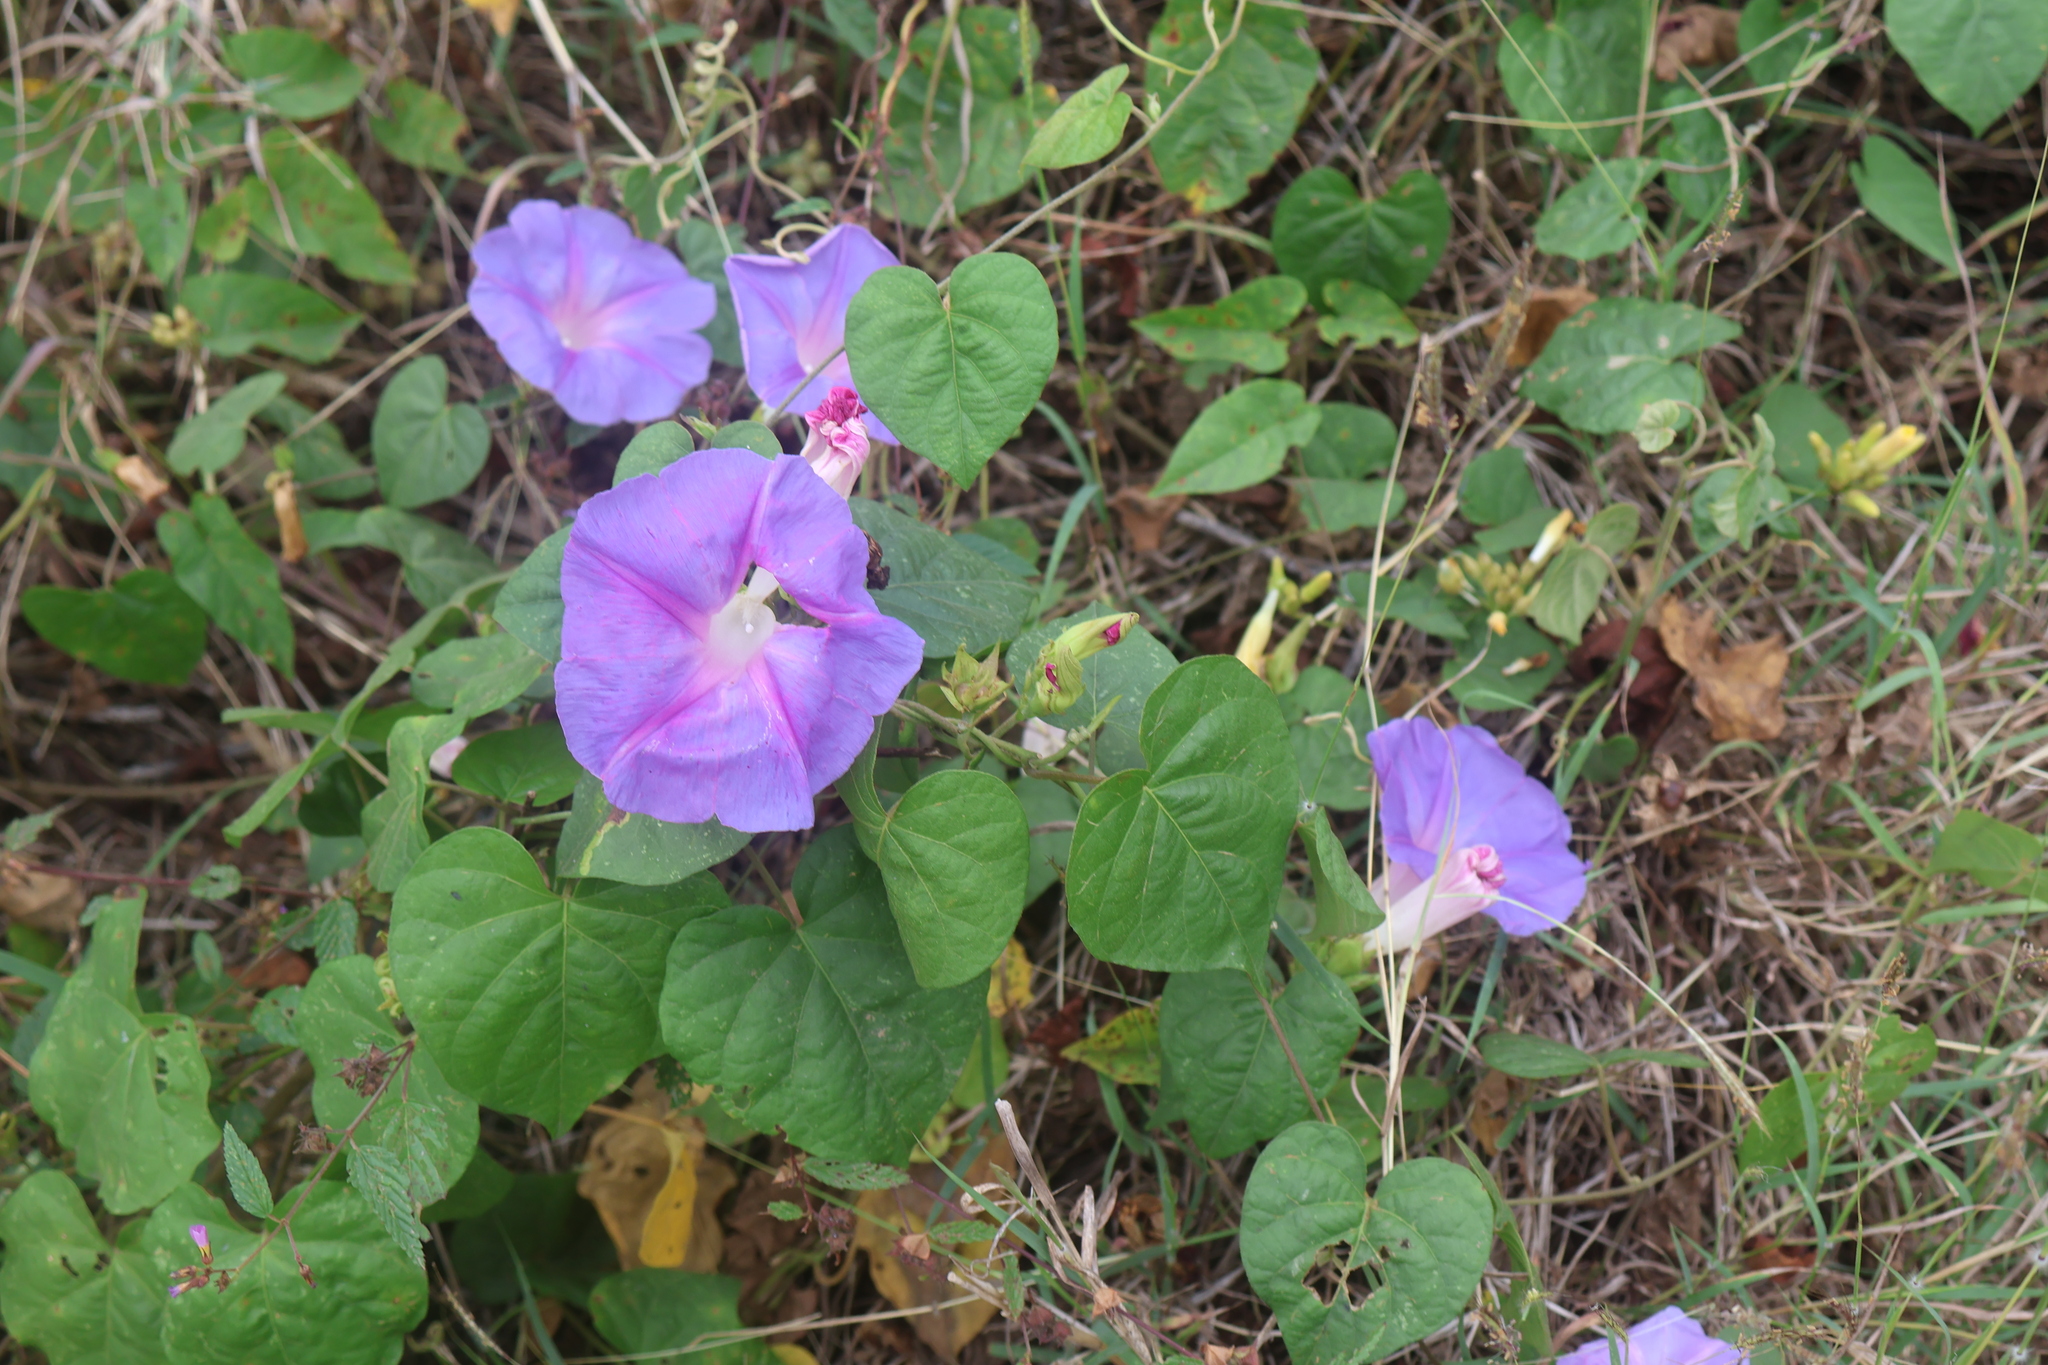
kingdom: Plantae
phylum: Tracheophyta
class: Magnoliopsida
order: Solanales
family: Convolvulaceae
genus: Ipomoea
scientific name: Ipomoea indica
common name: Blue dawnflower
